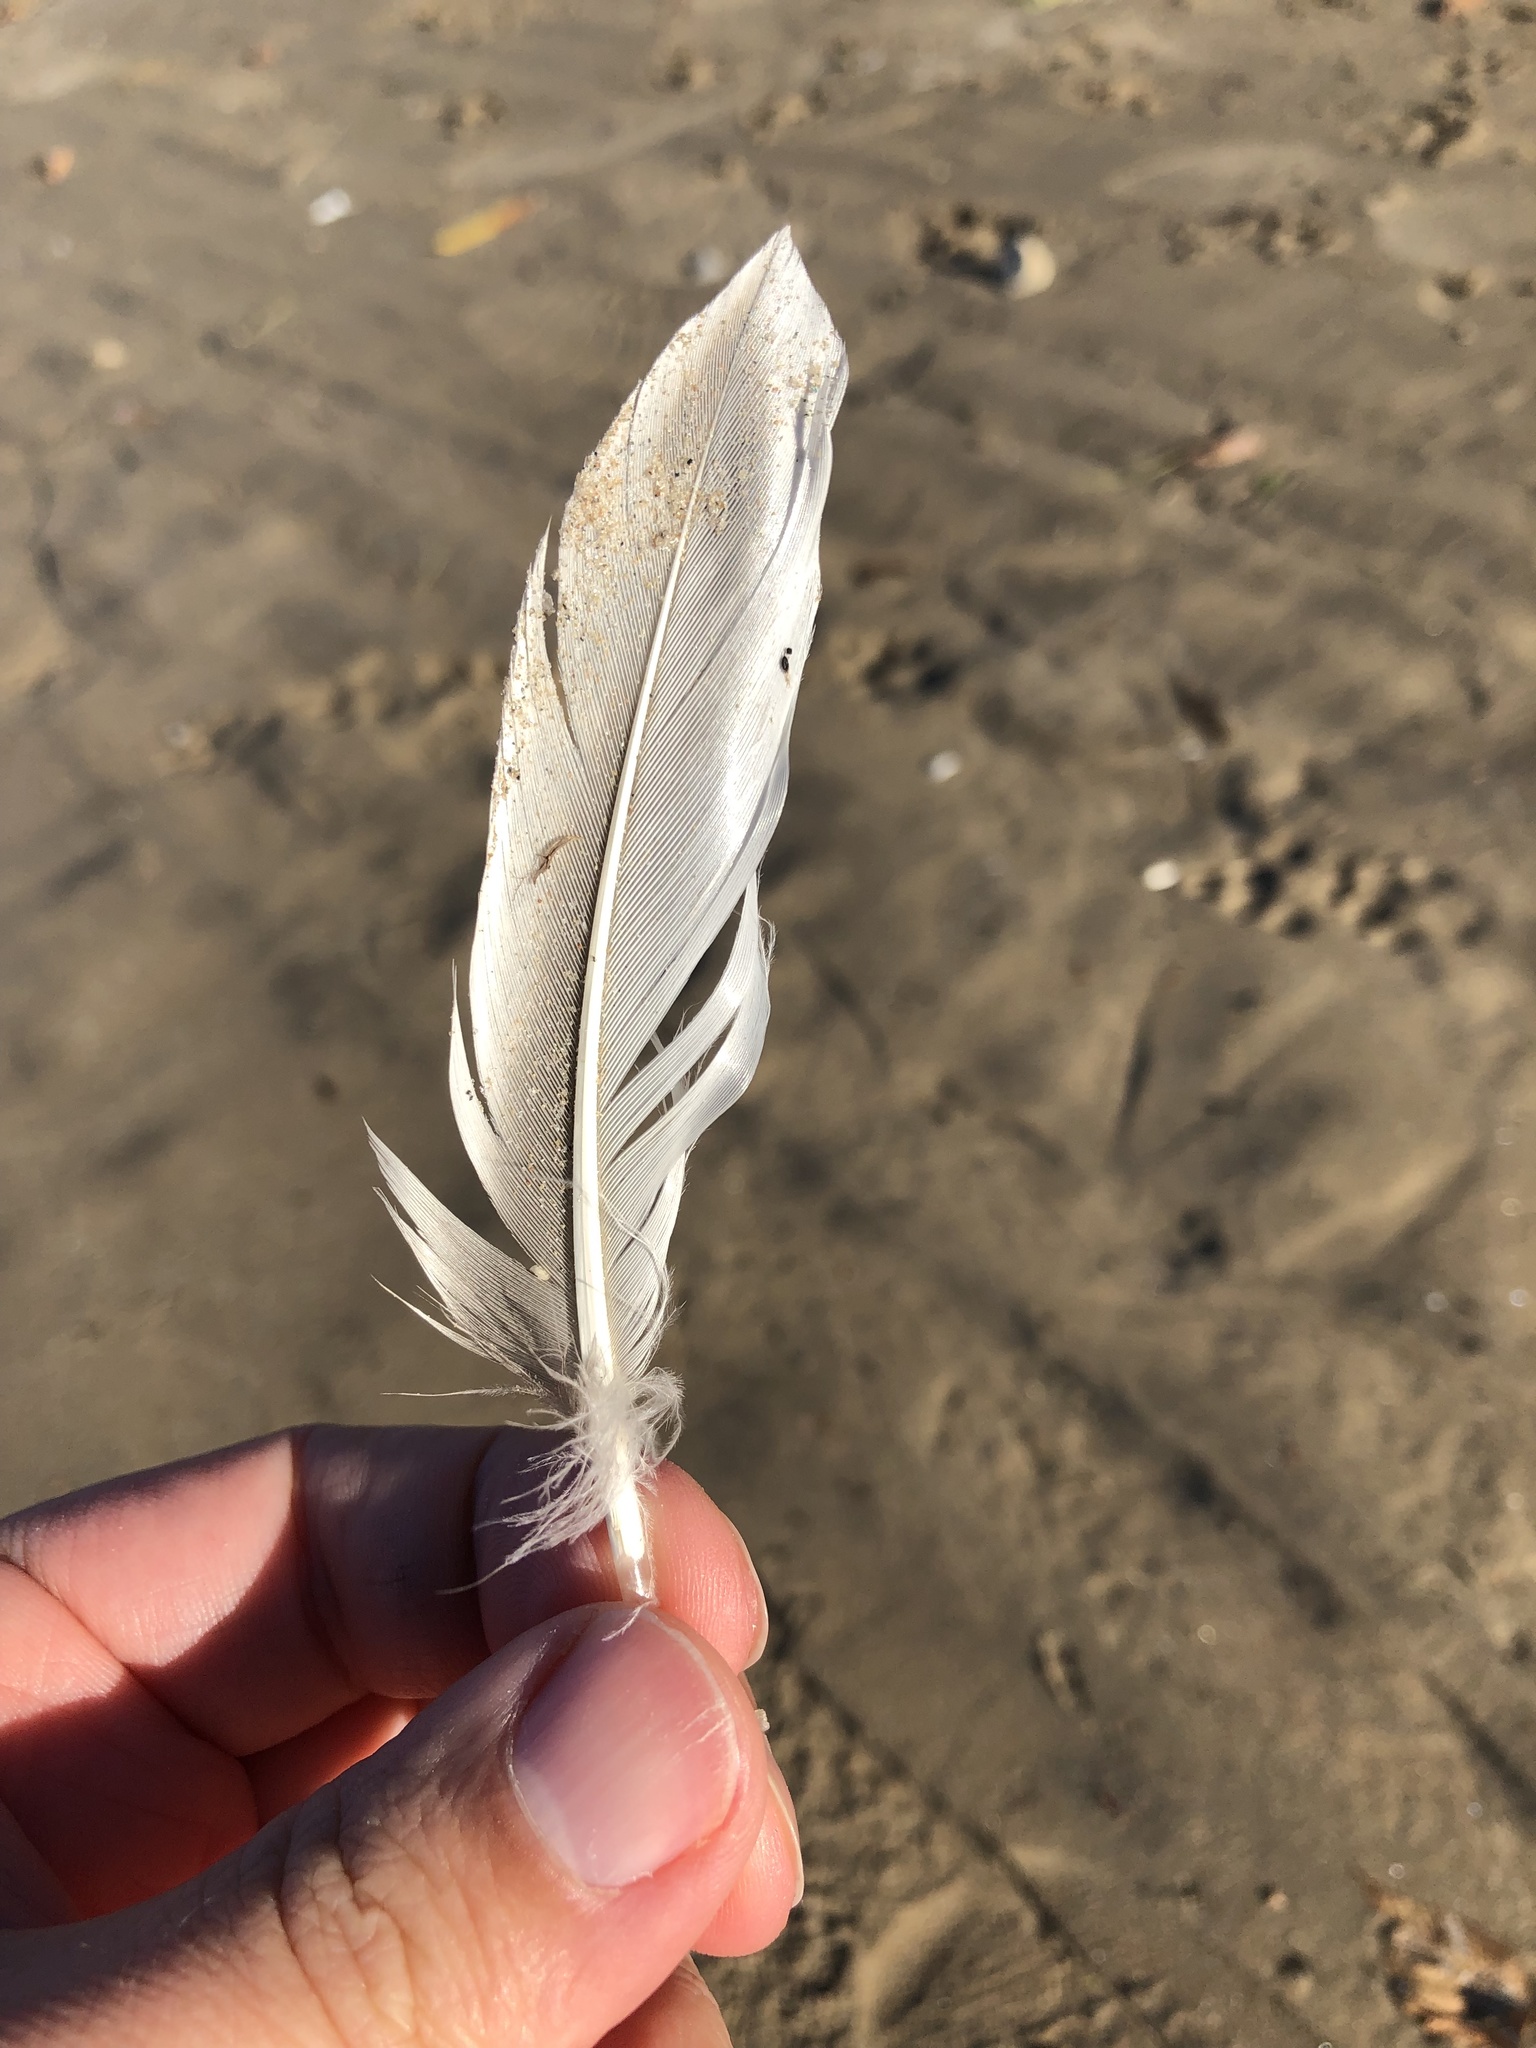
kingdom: Animalia
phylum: Chordata
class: Aves
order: Anseriformes
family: Anatidae
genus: Anas
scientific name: Anas platyrhynchos
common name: Mallard
